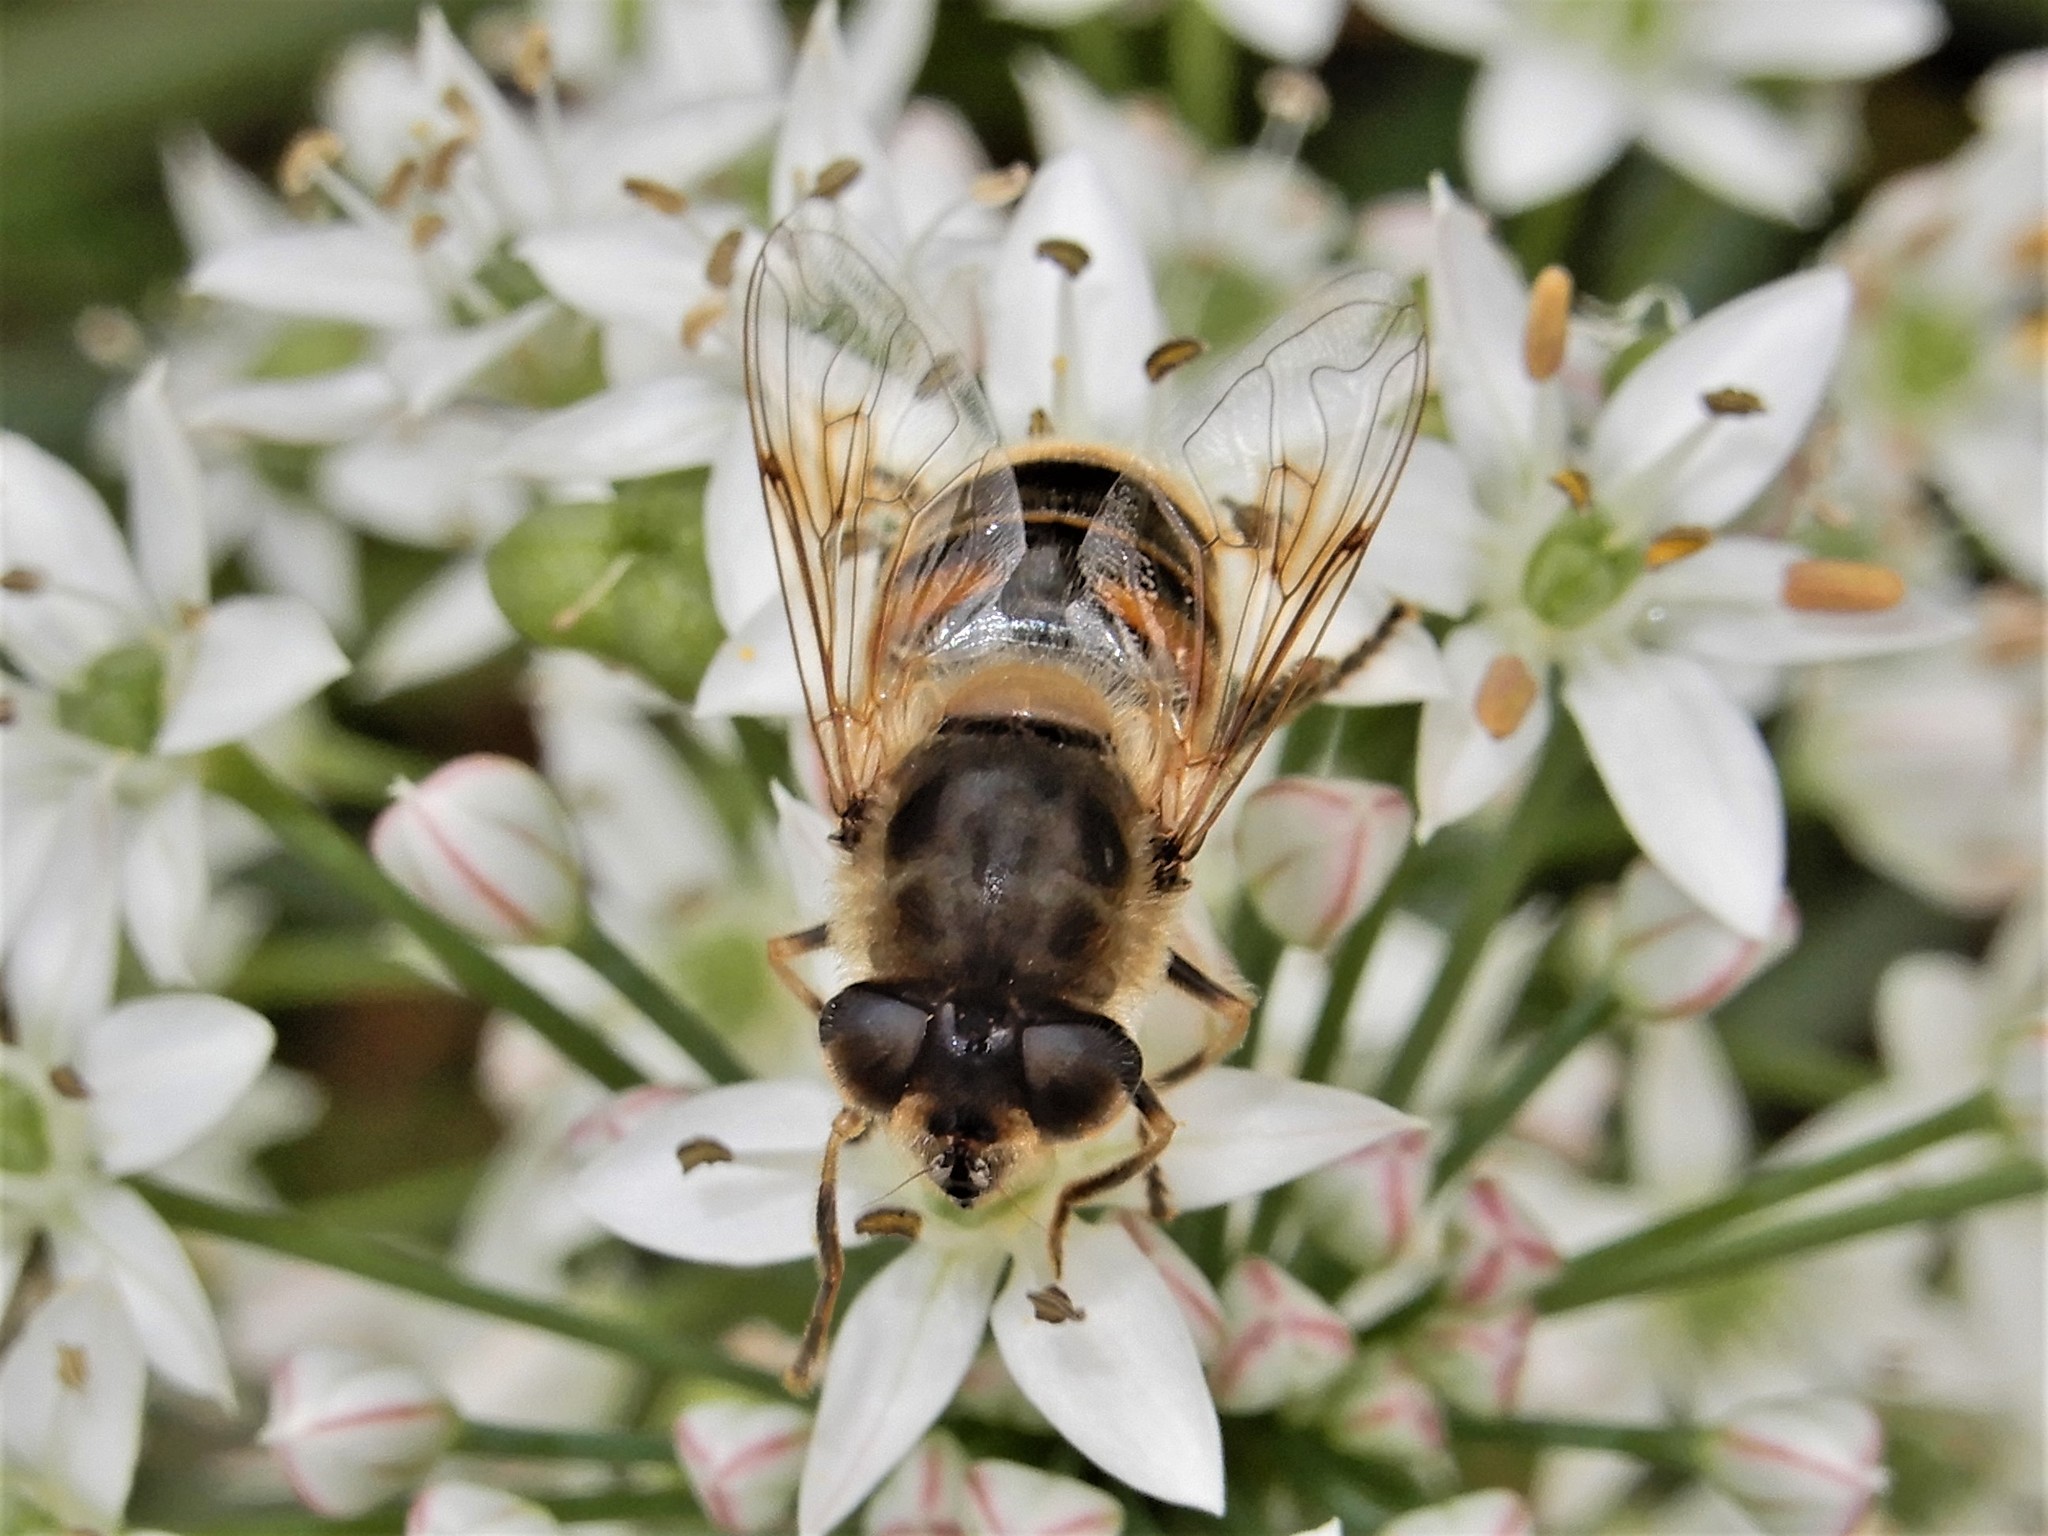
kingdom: Animalia
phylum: Arthropoda
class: Insecta
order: Diptera
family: Syrphidae
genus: Eristalis
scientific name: Eristalis tenax
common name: Drone fly
